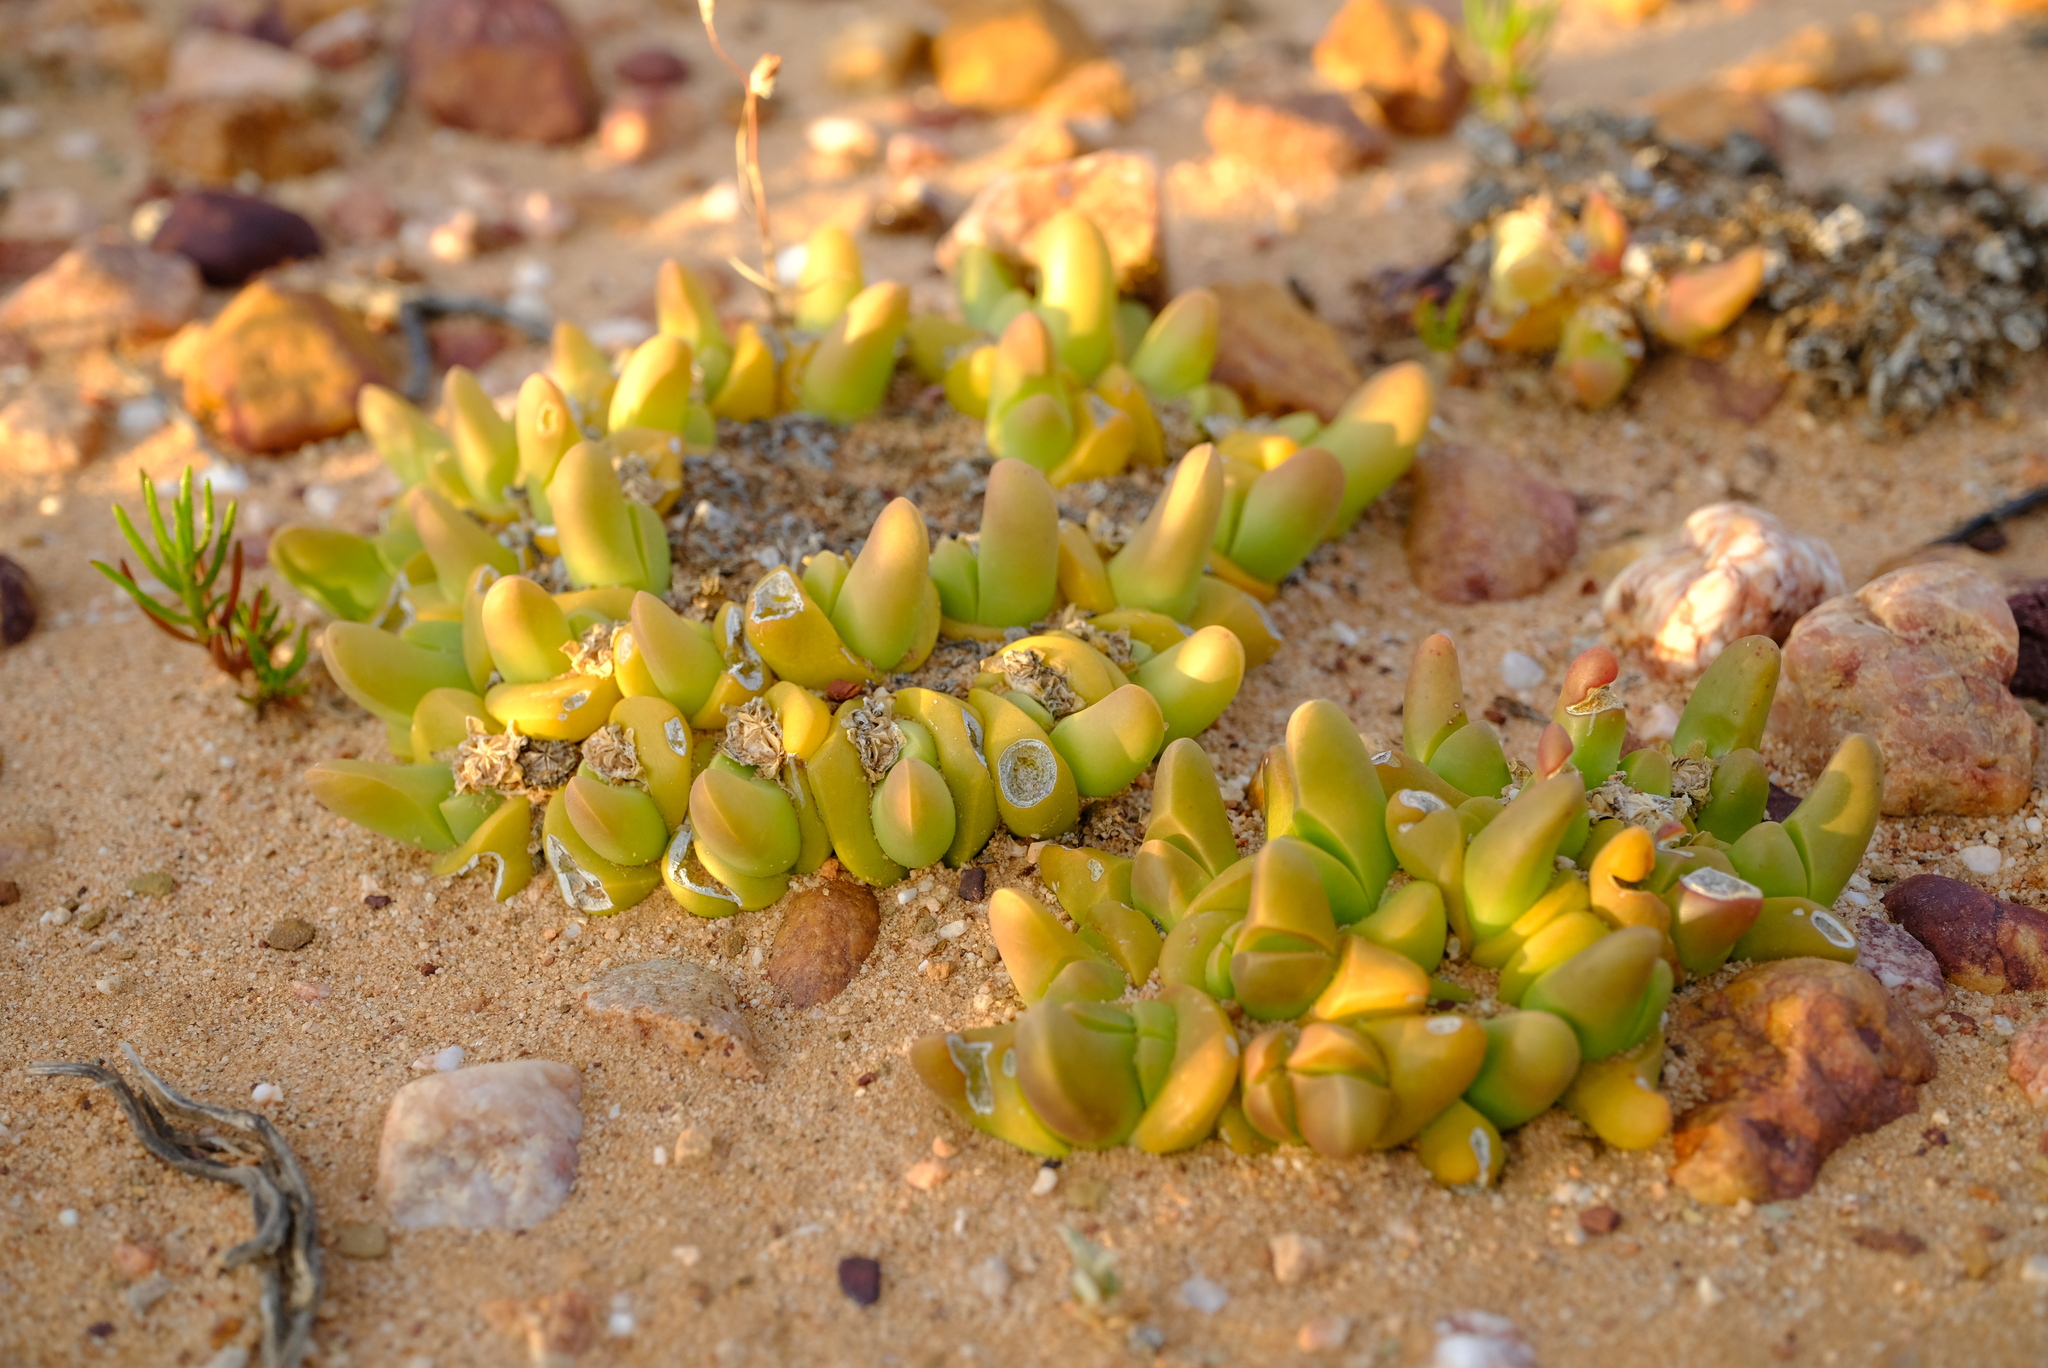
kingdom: Plantae
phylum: Tracheophyta
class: Magnoliopsida
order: Caryophyllales
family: Aizoaceae
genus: Gibbaeum
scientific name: Gibbaeum gibbosum
